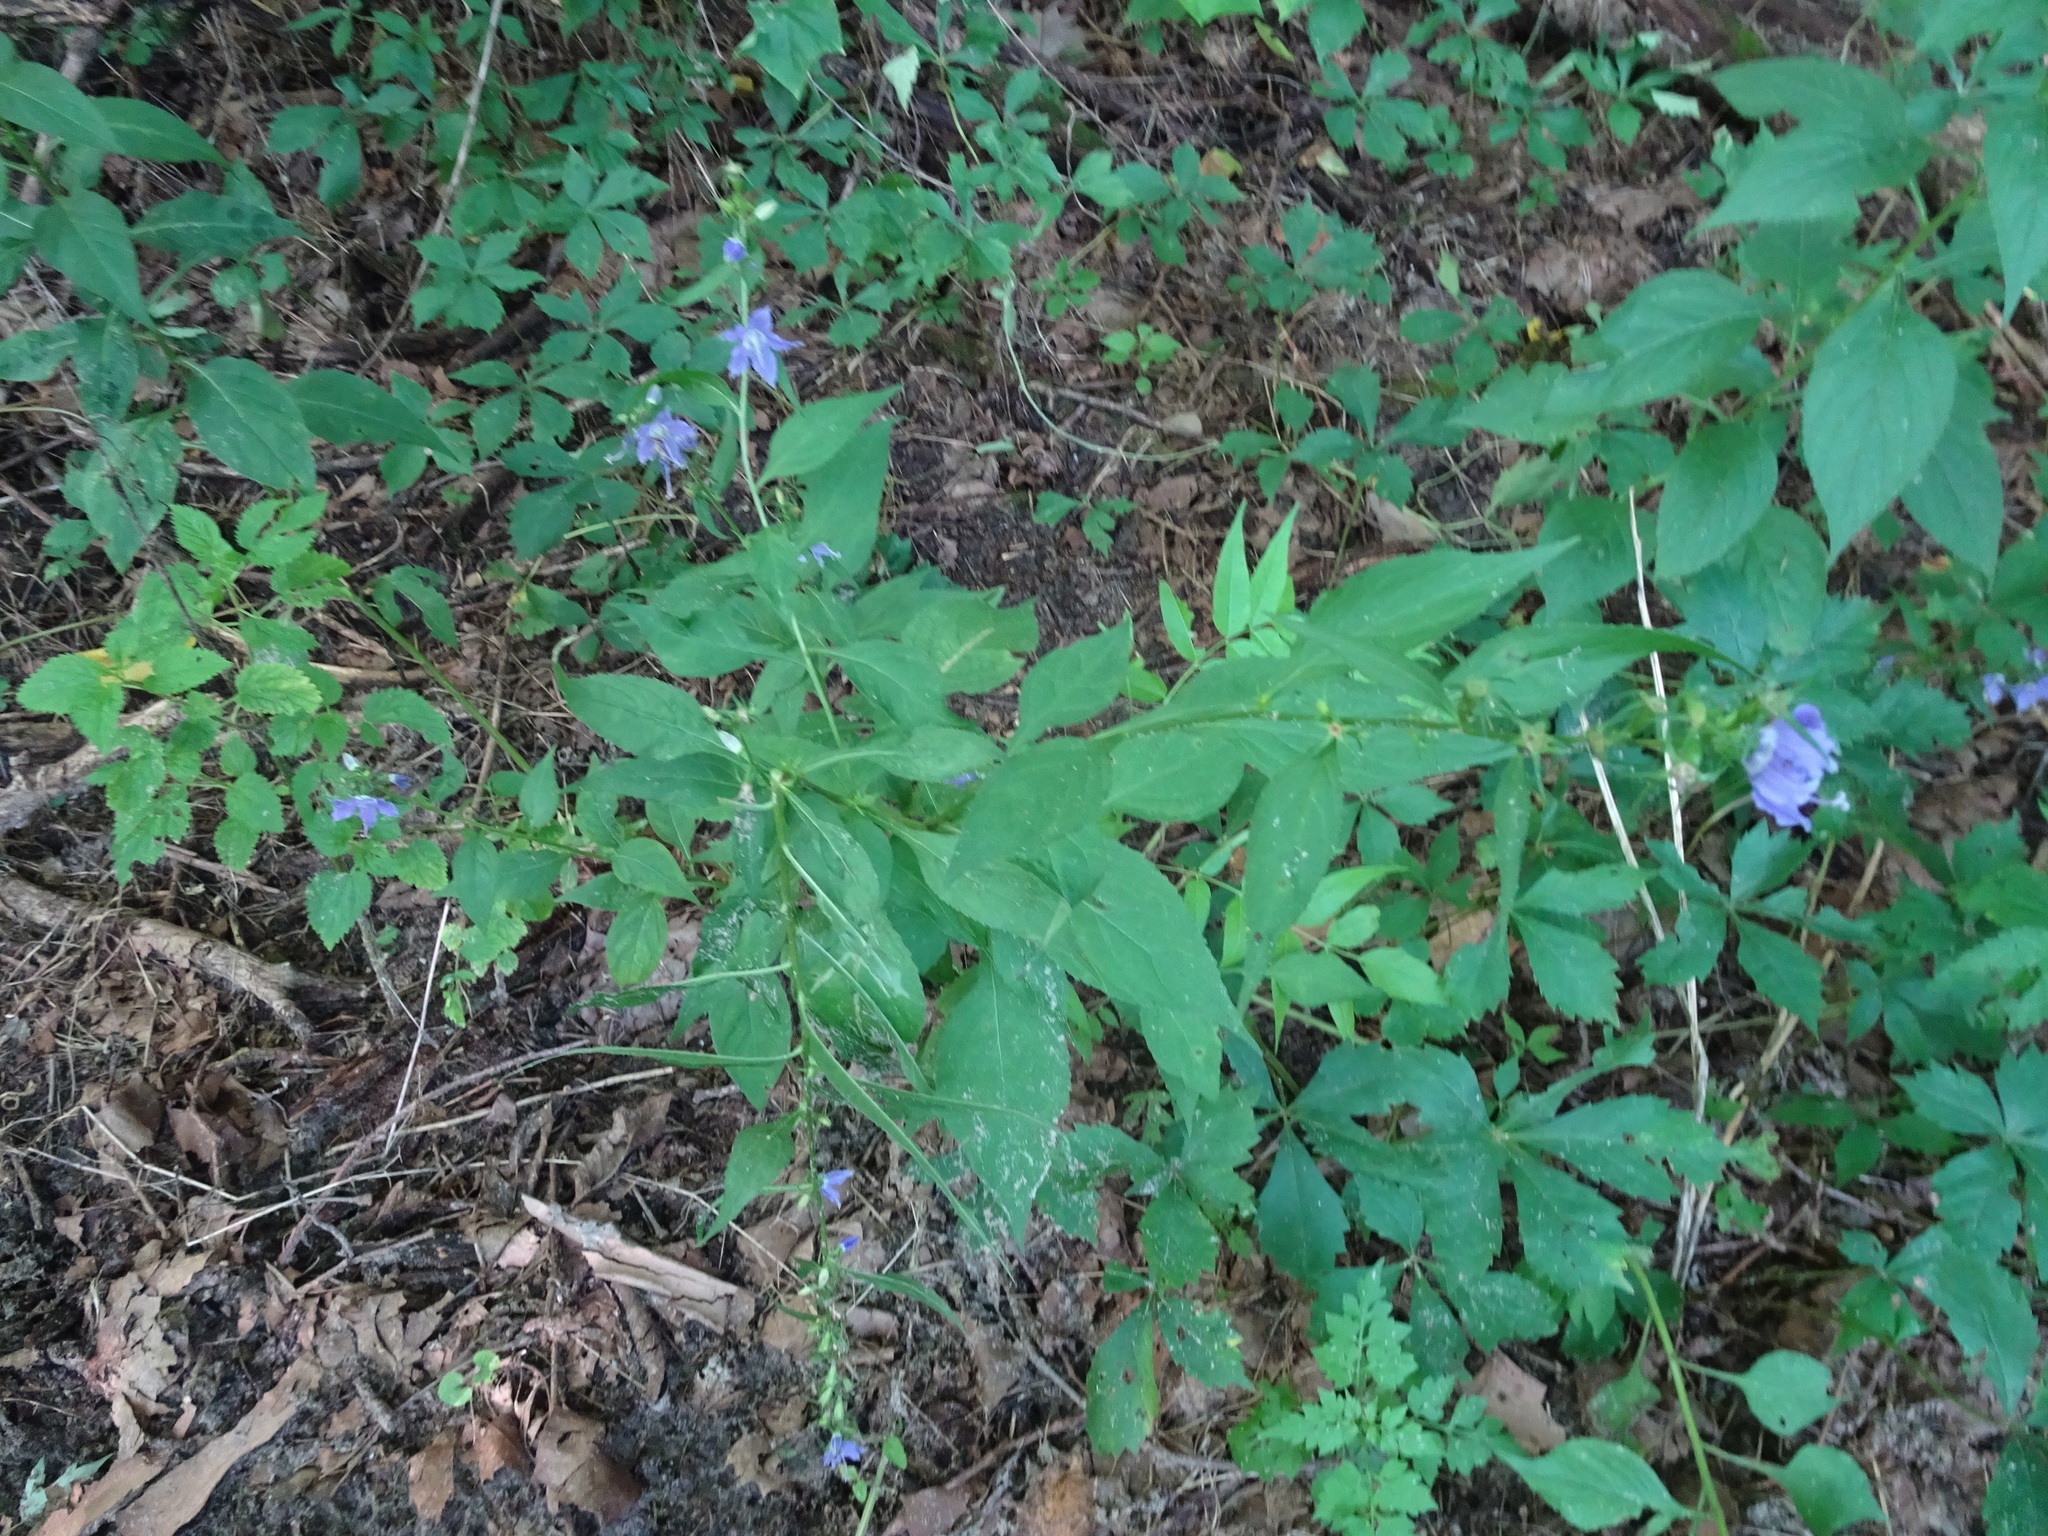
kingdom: Plantae
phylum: Tracheophyta
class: Magnoliopsida
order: Asterales
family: Campanulaceae
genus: Campanulastrum
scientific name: Campanulastrum americanum
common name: American bellflower
